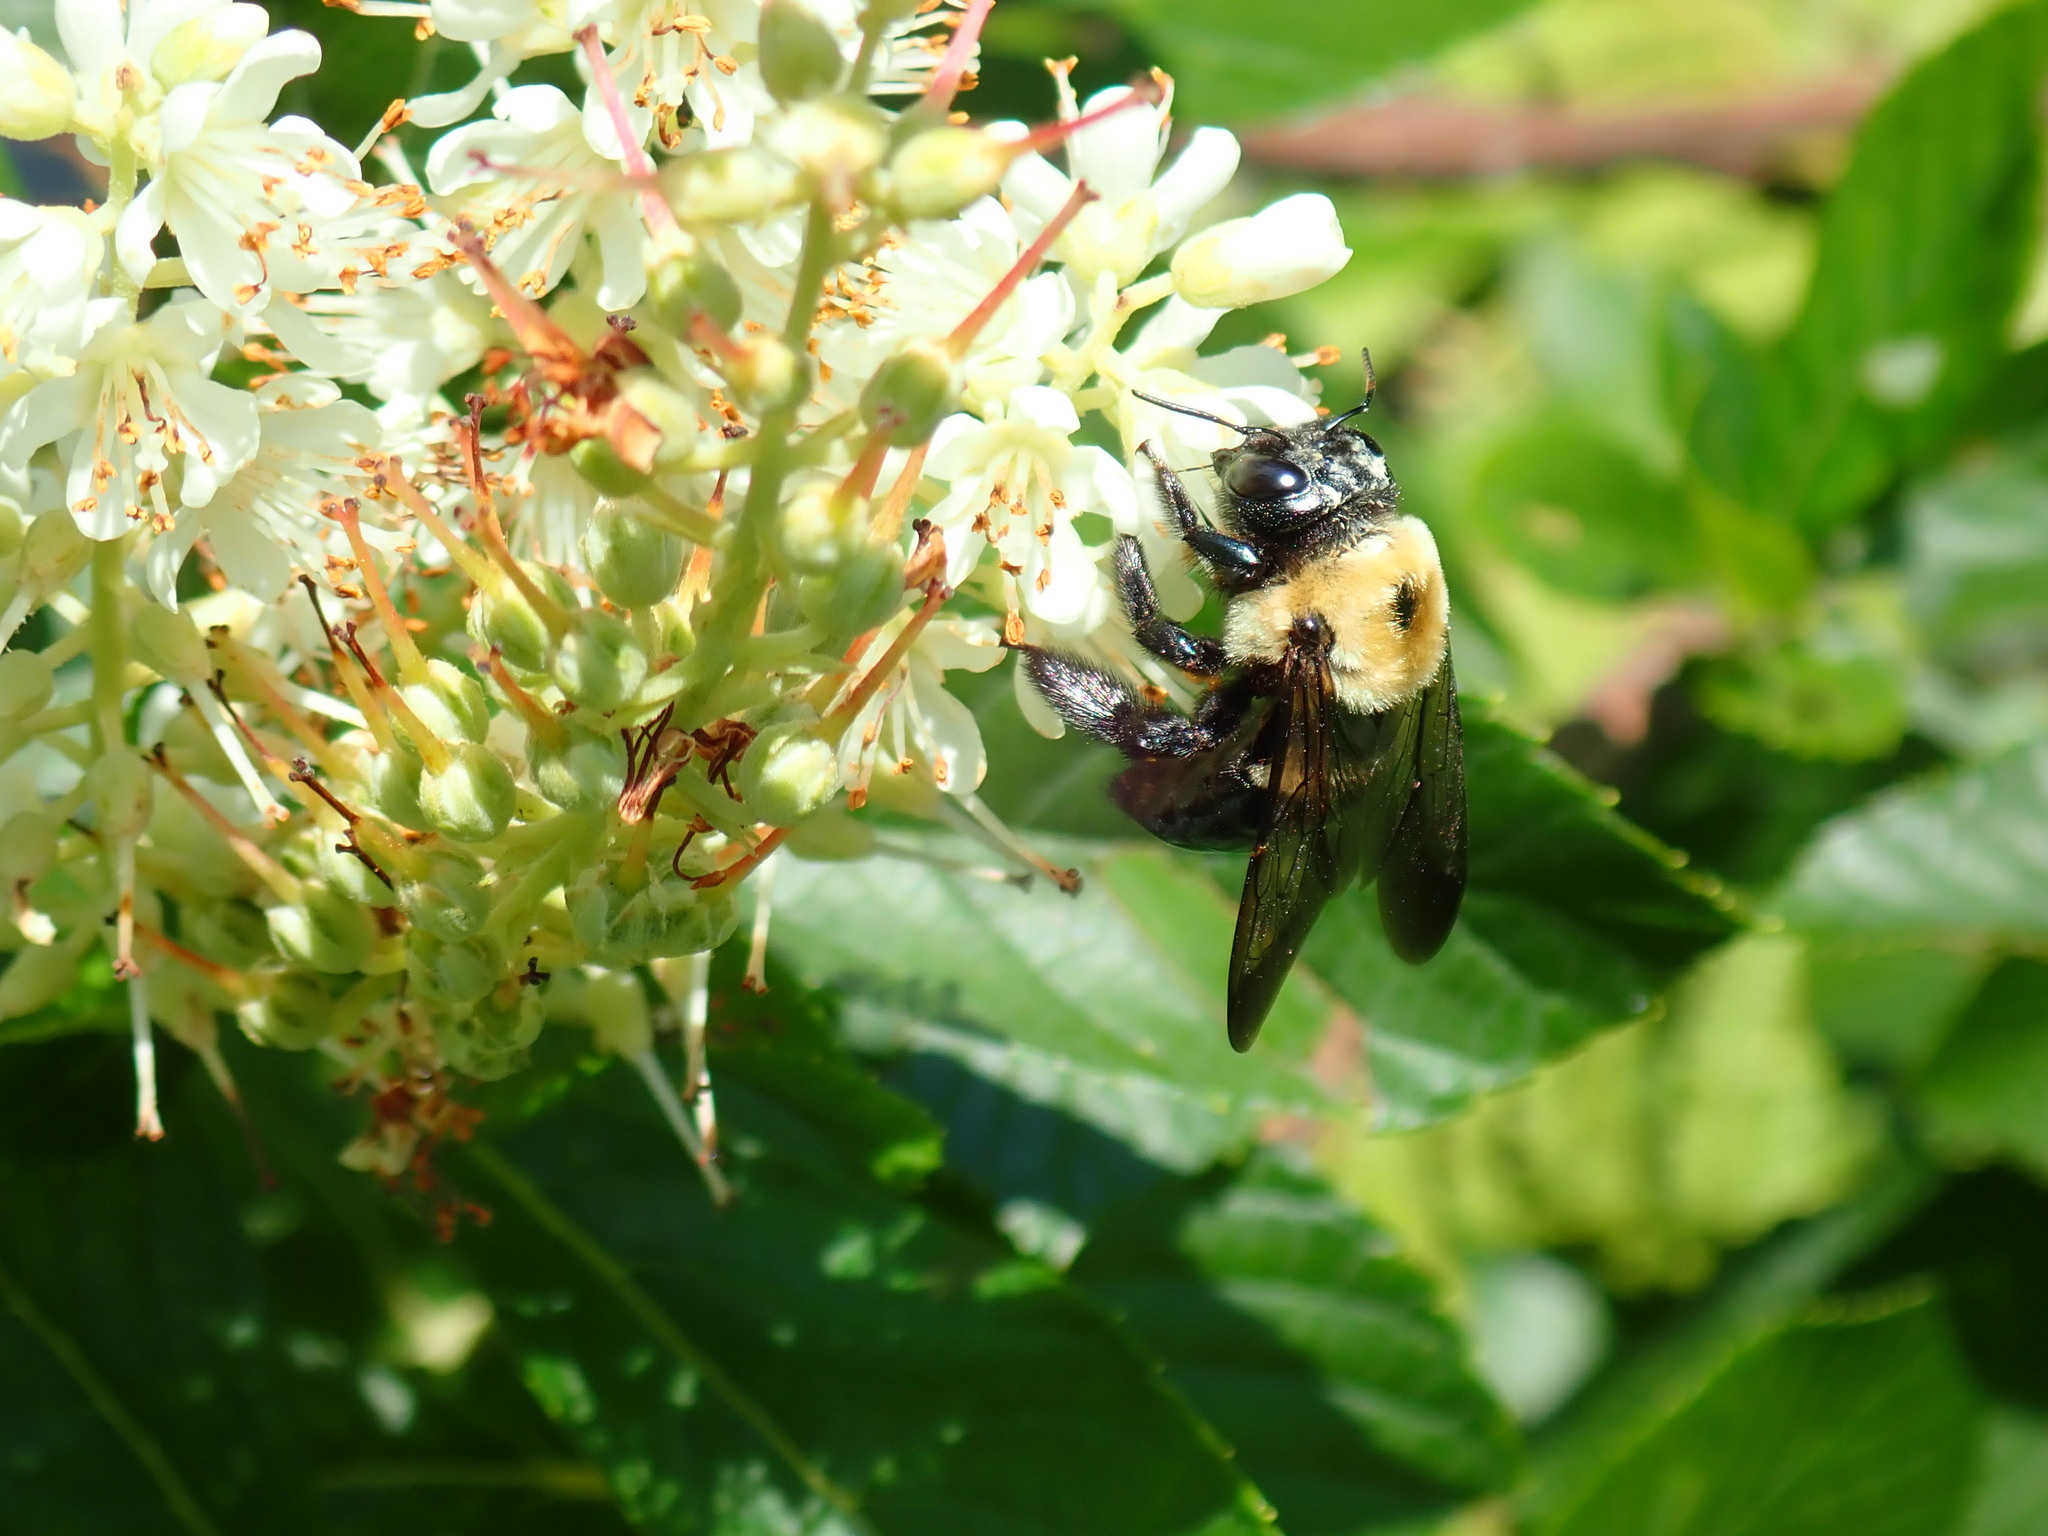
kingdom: Animalia
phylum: Arthropoda
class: Insecta
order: Hymenoptera
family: Apidae
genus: Xylocopa
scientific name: Xylocopa virginica
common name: Carpenter bee
